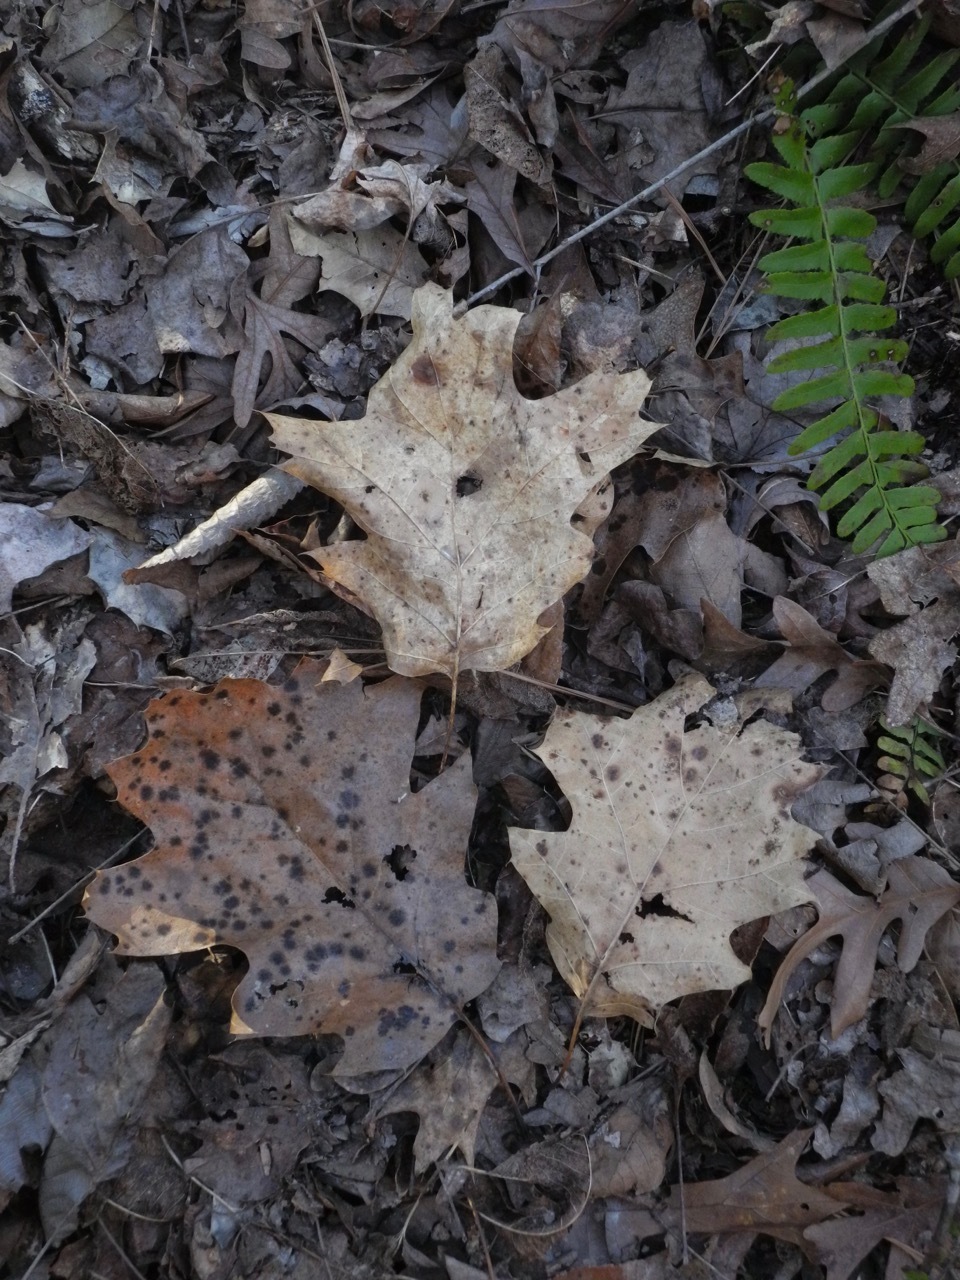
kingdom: Plantae
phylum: Tracheophyta
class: Magnoliopsida
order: Fagales
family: Fagaceae
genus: Quercus
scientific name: Quercus rubra
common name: Red oak
